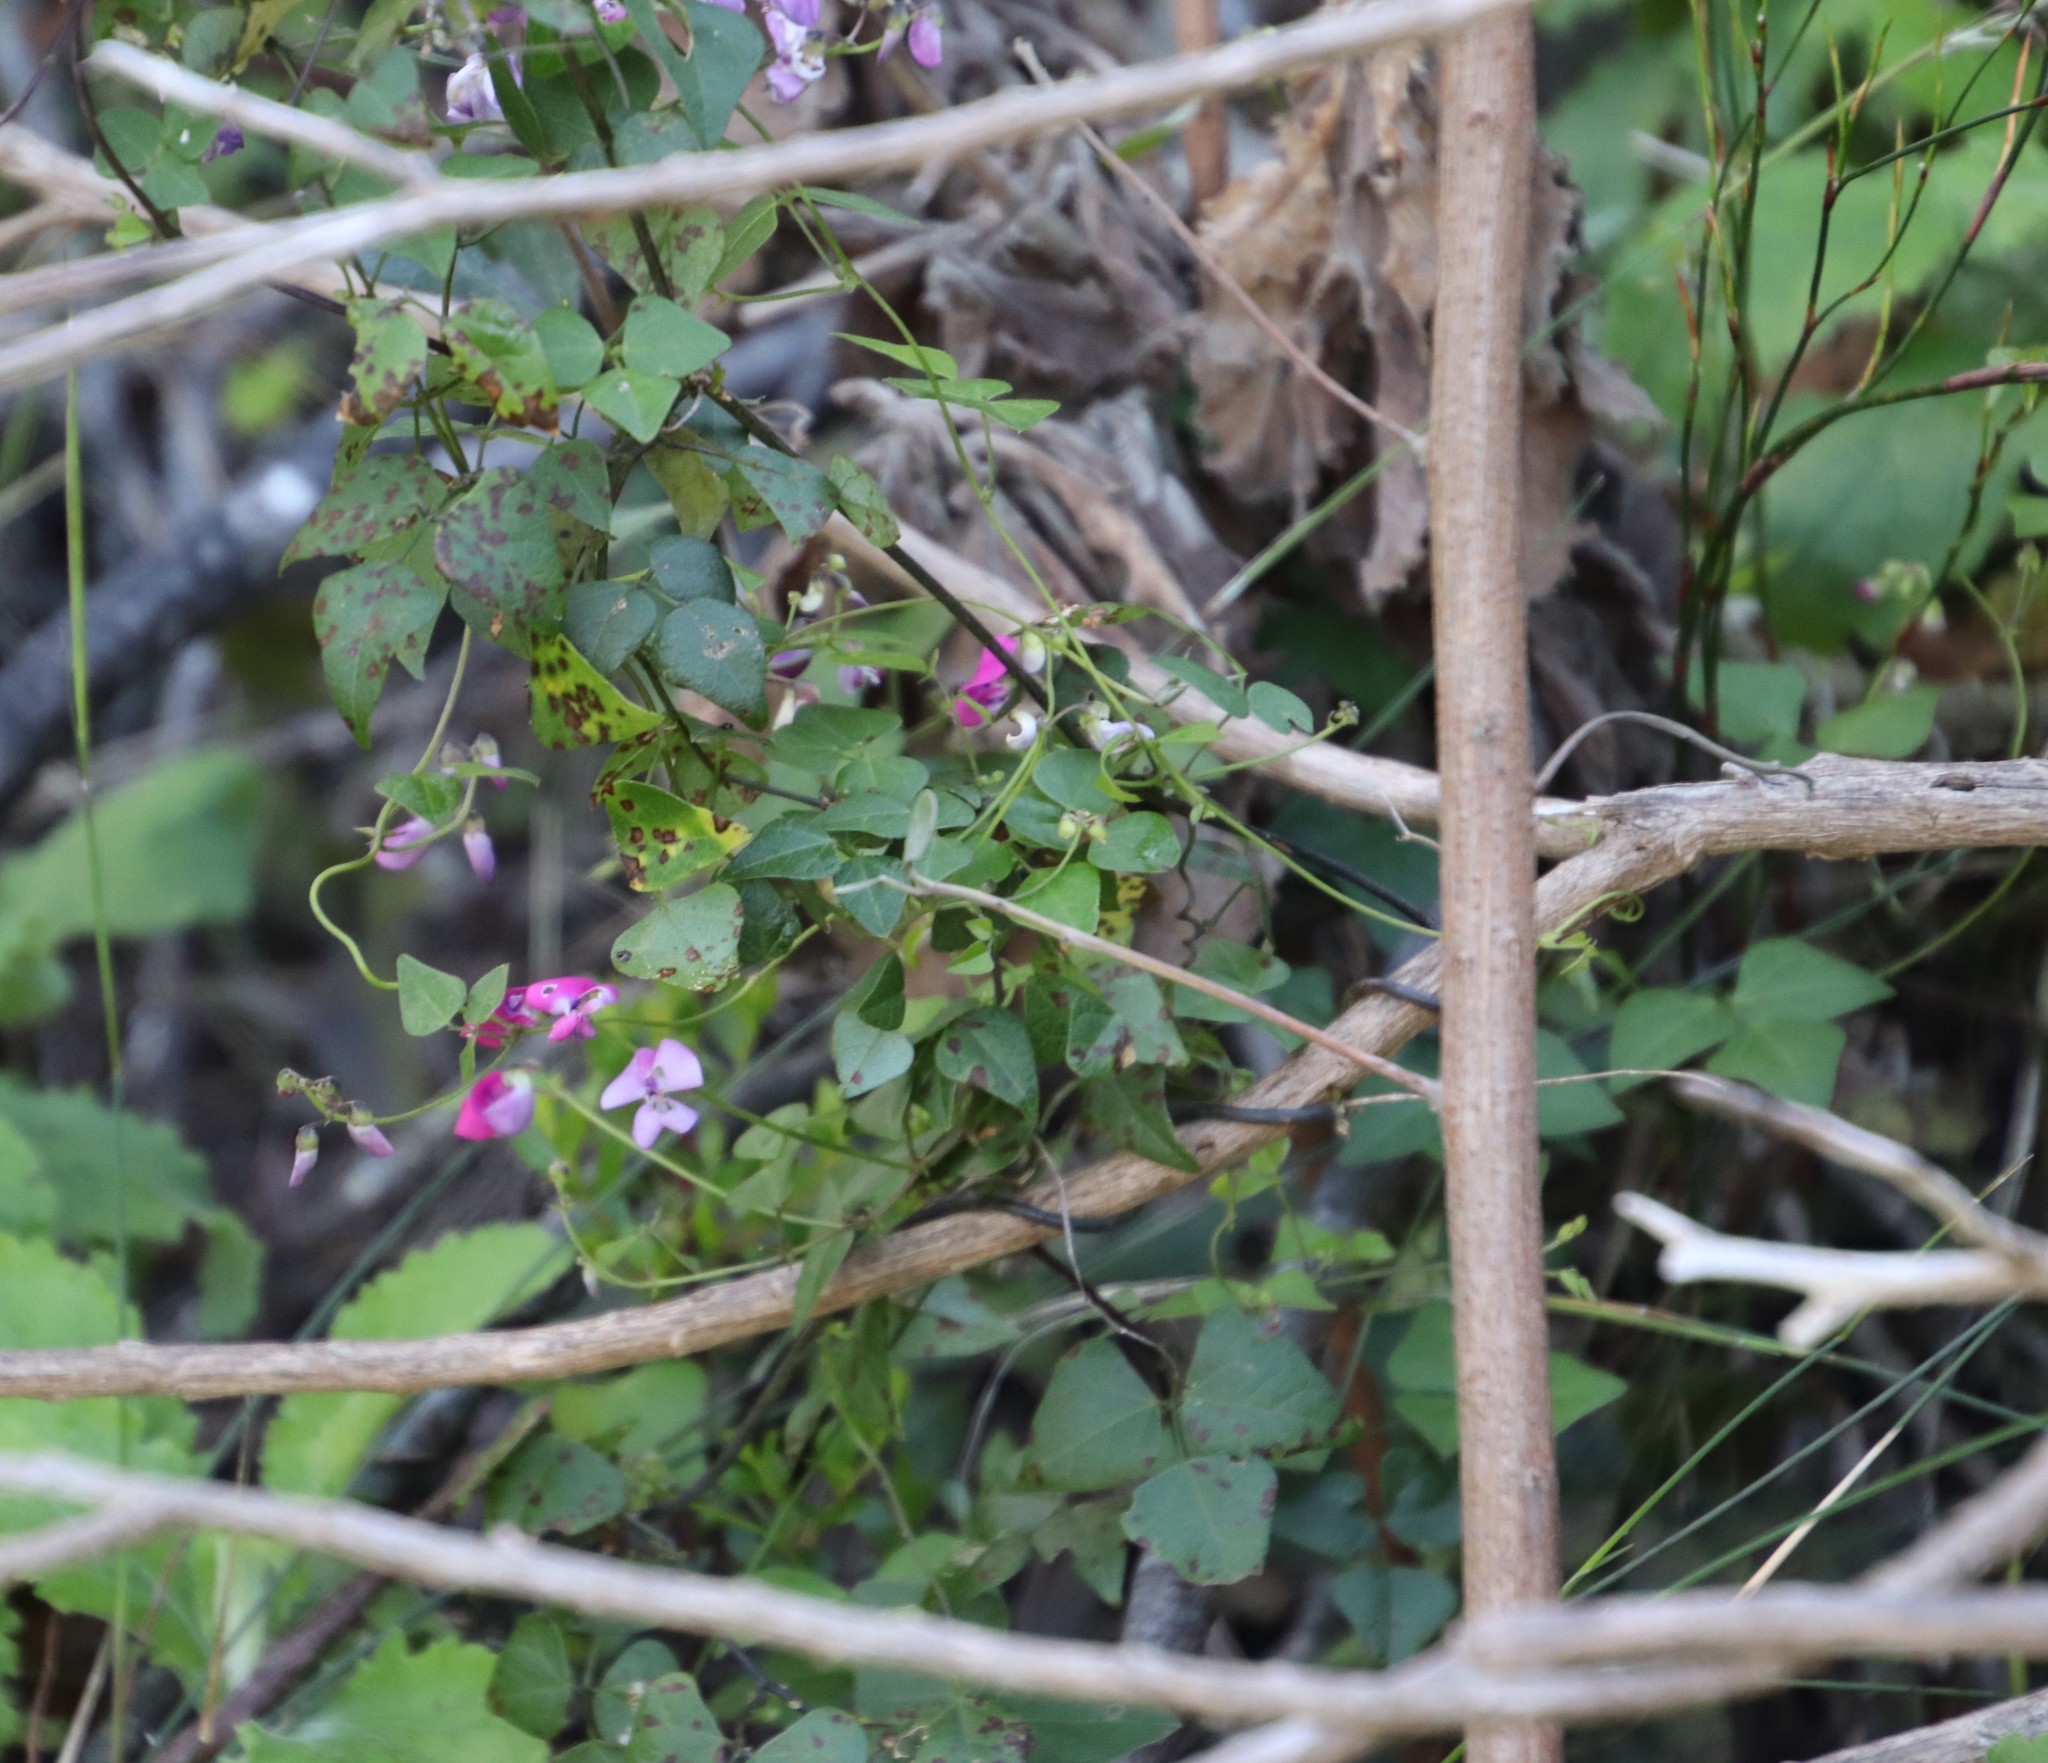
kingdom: Plantae
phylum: Tracheophyta
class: Magnoliopsida
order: Fabales
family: Fabaceae
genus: Dipogon
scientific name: Dipogon lignosus
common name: Okie bean
